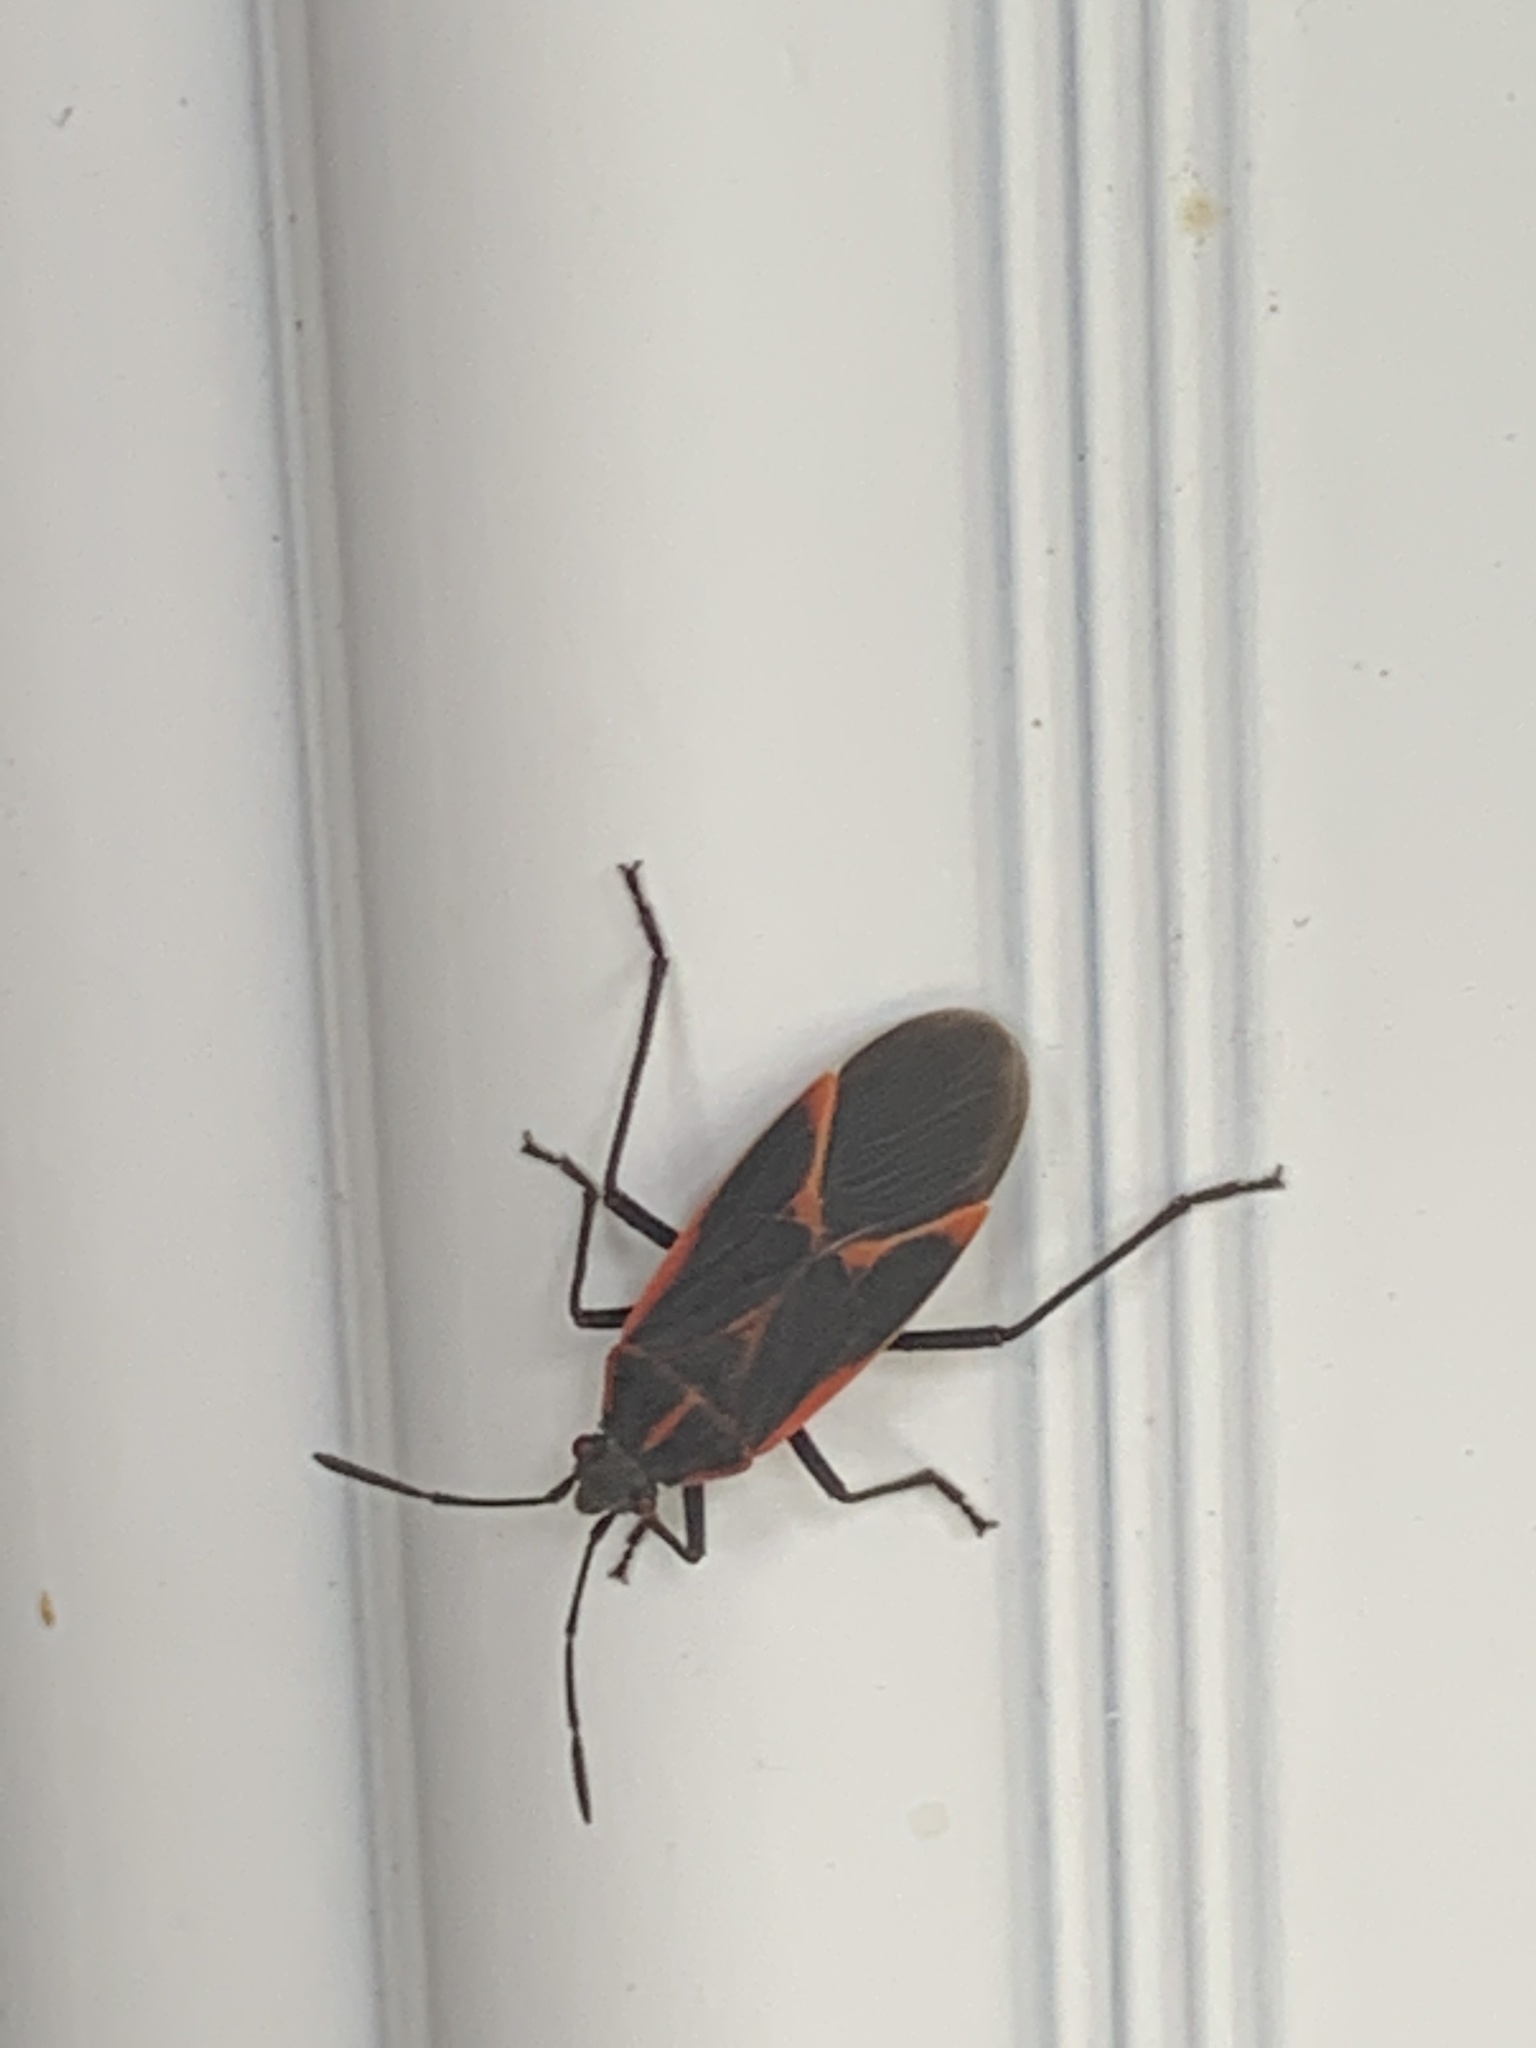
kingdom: Animalia
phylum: Arthropoda
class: Insecta
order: Hemiptera
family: Rhopalidae
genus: Boisea
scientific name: Boisea trivittata
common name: Boxelder bug
